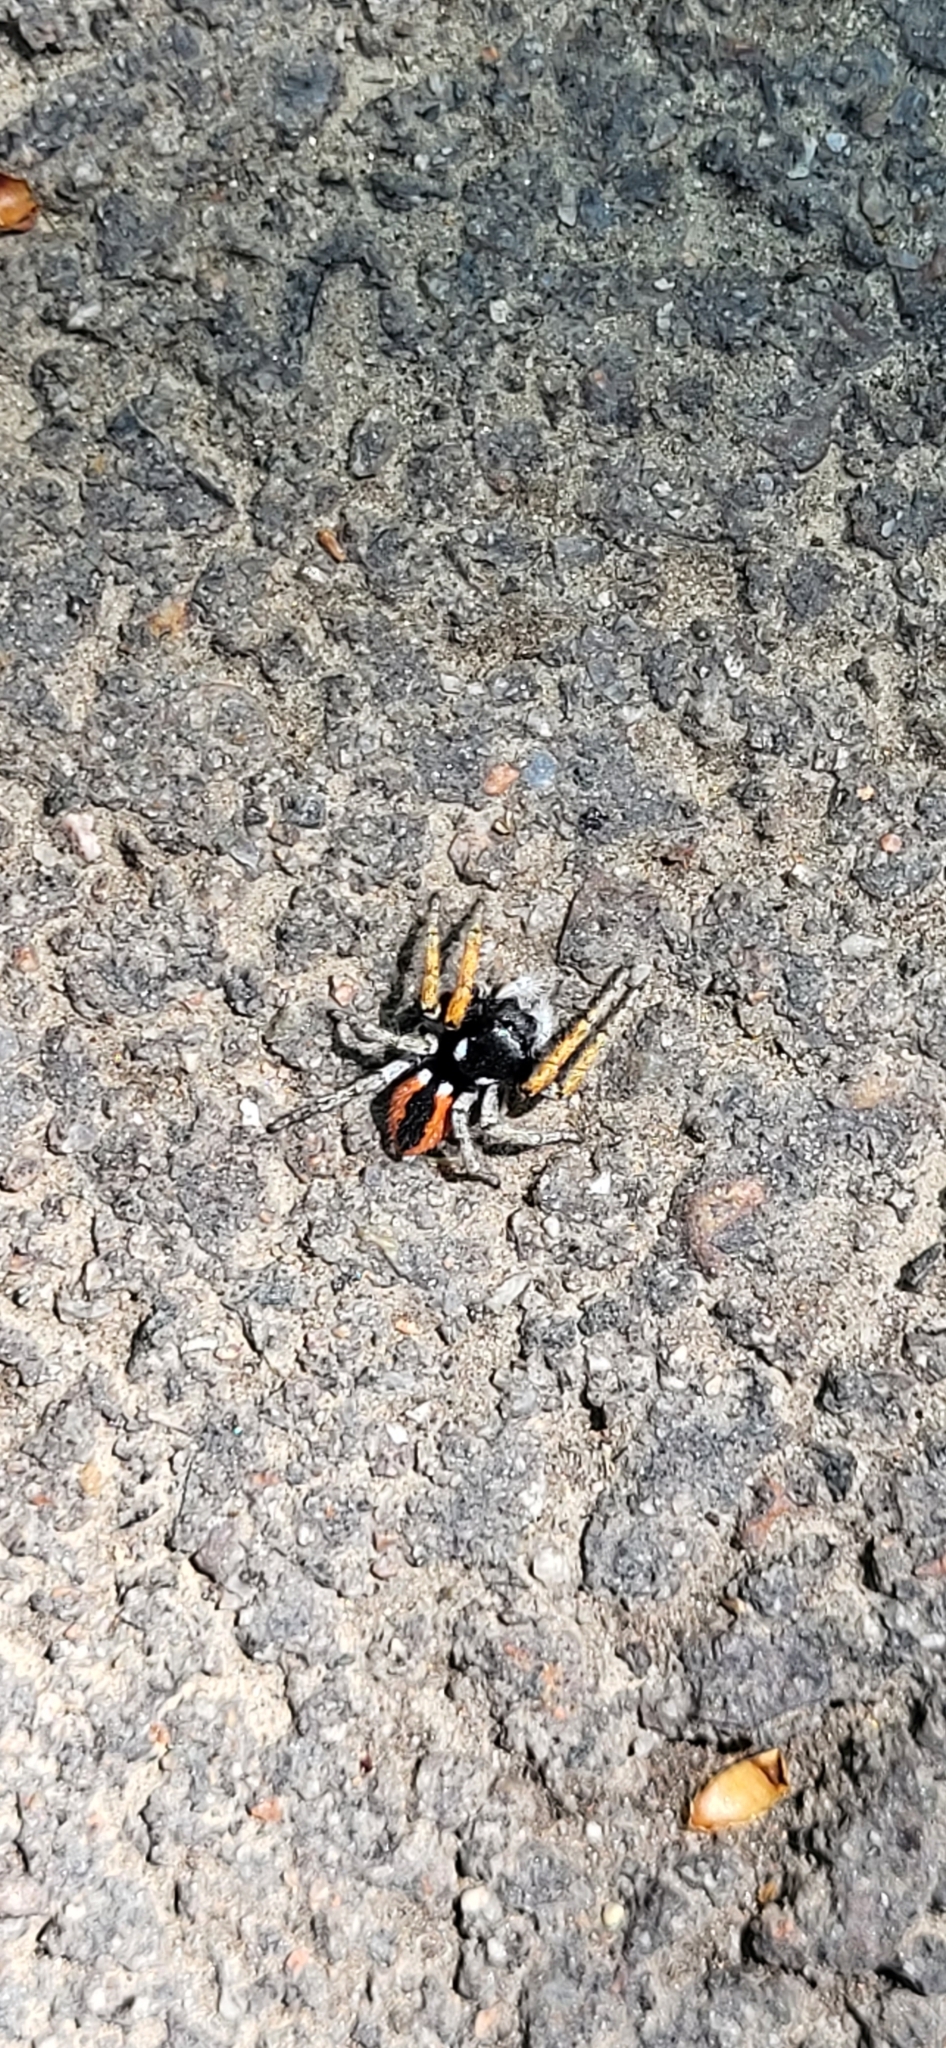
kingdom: Animalia
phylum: Arthropoda
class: Arachnida
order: Araneae
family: Salticidae
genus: Philaeus
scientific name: Philaeus chrysops
